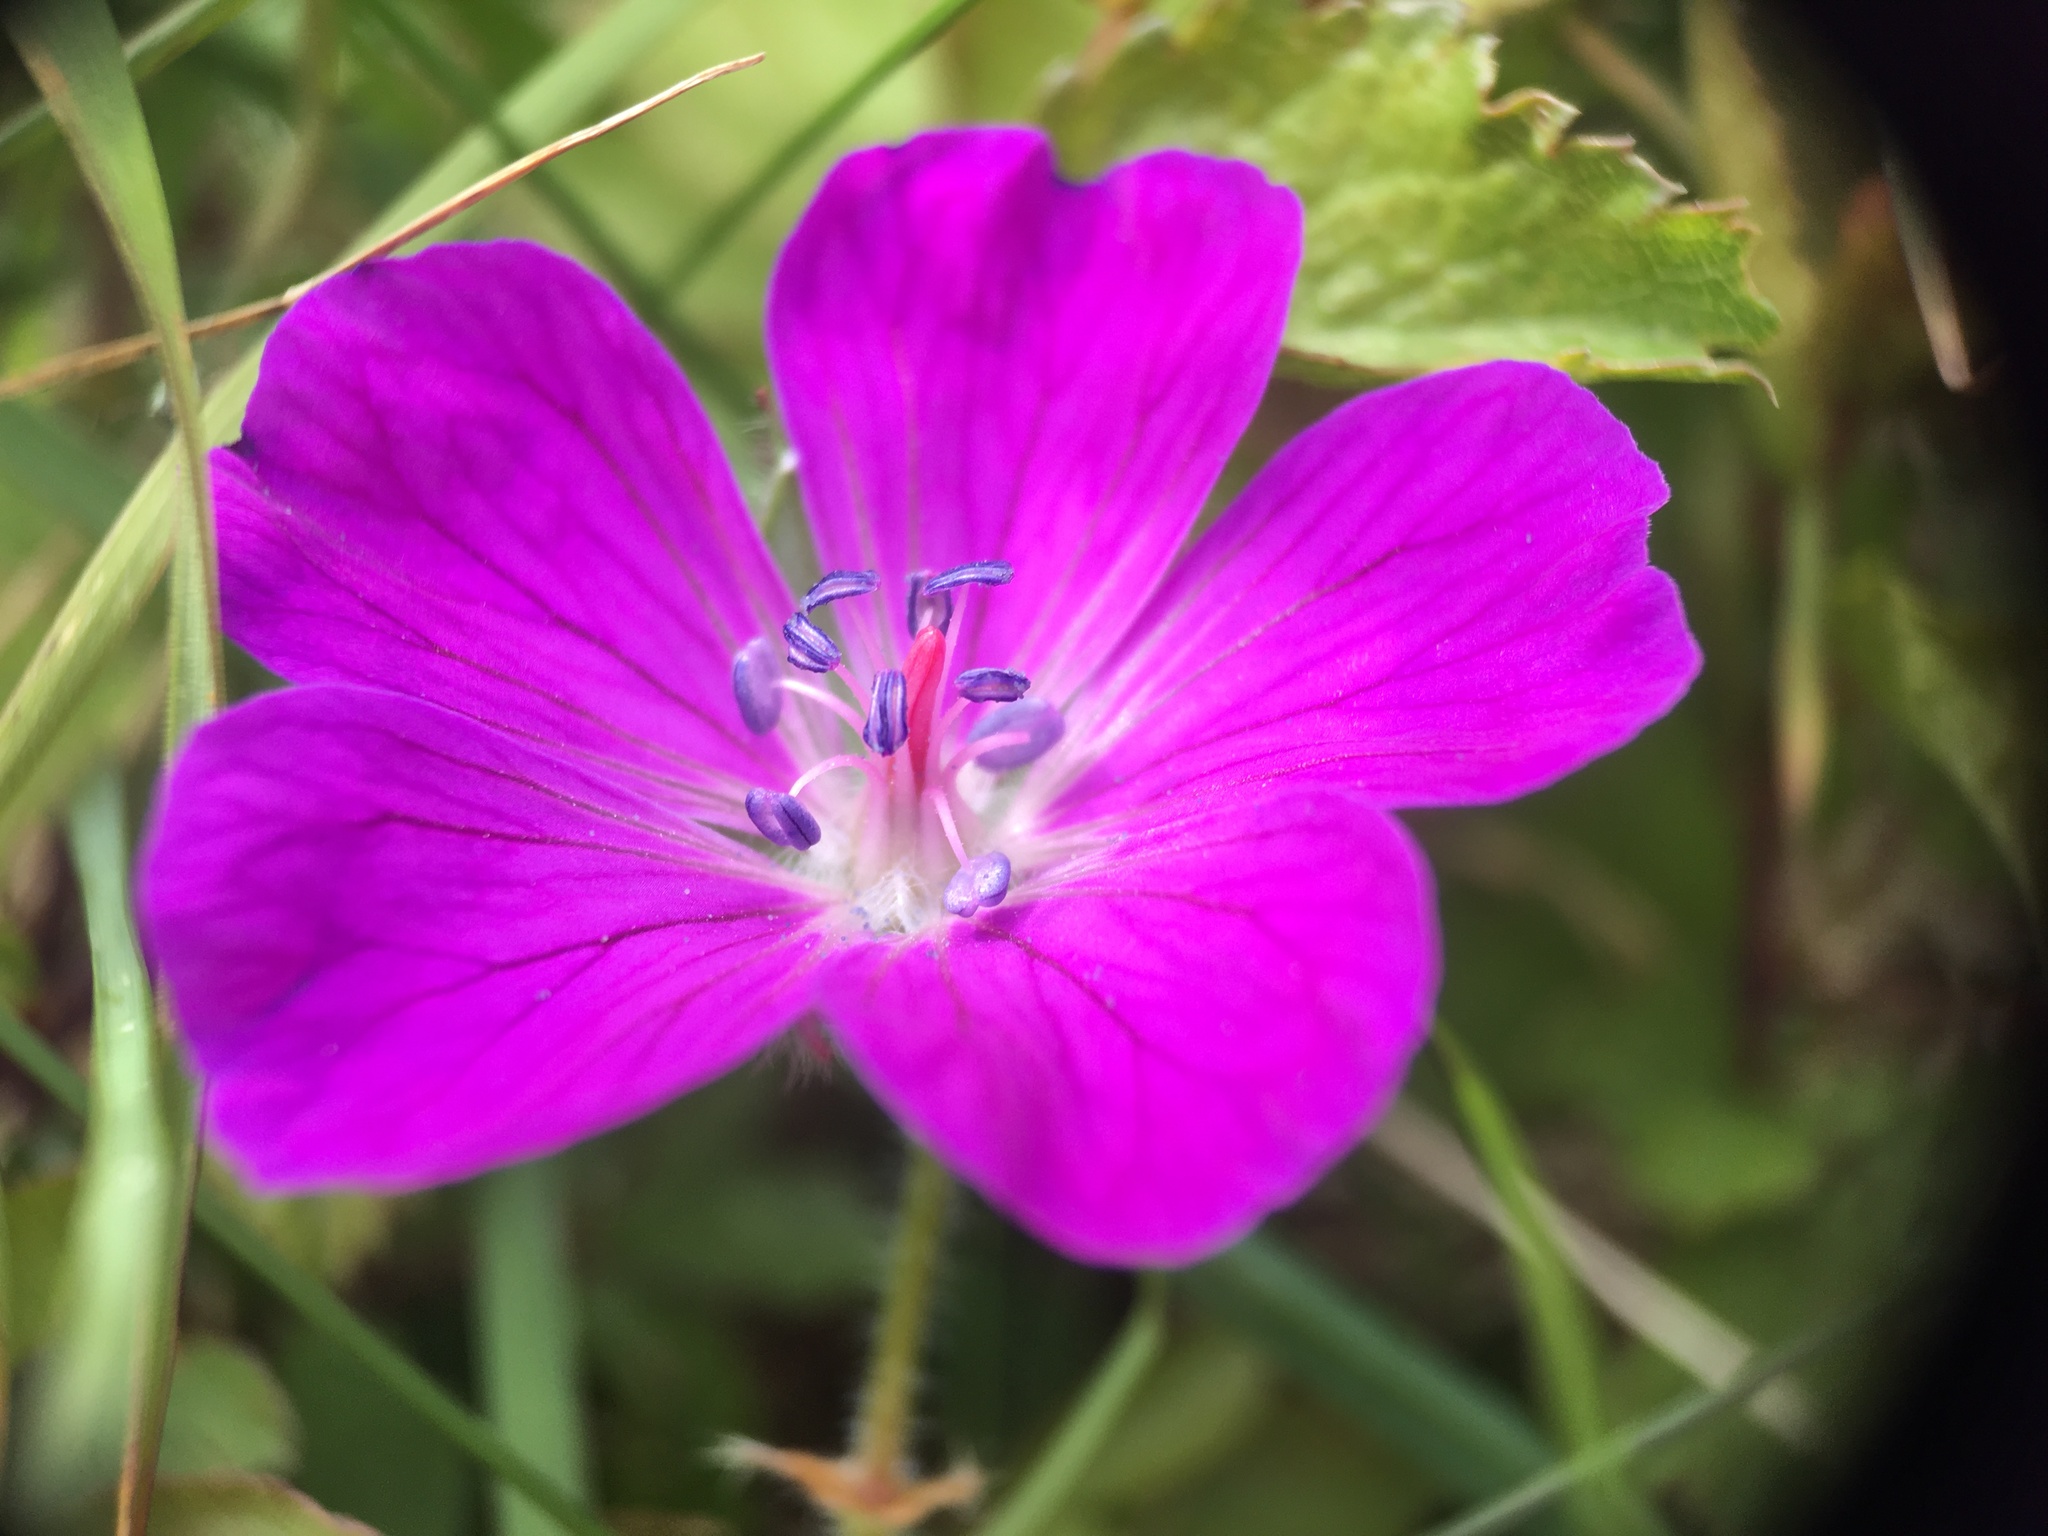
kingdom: Plantae
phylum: Tracheophyta
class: Magnoliopsida
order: Geraniales
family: Geraniaceae
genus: Geranium
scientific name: Geranium sanguineum
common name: Bloody crane's-bill
